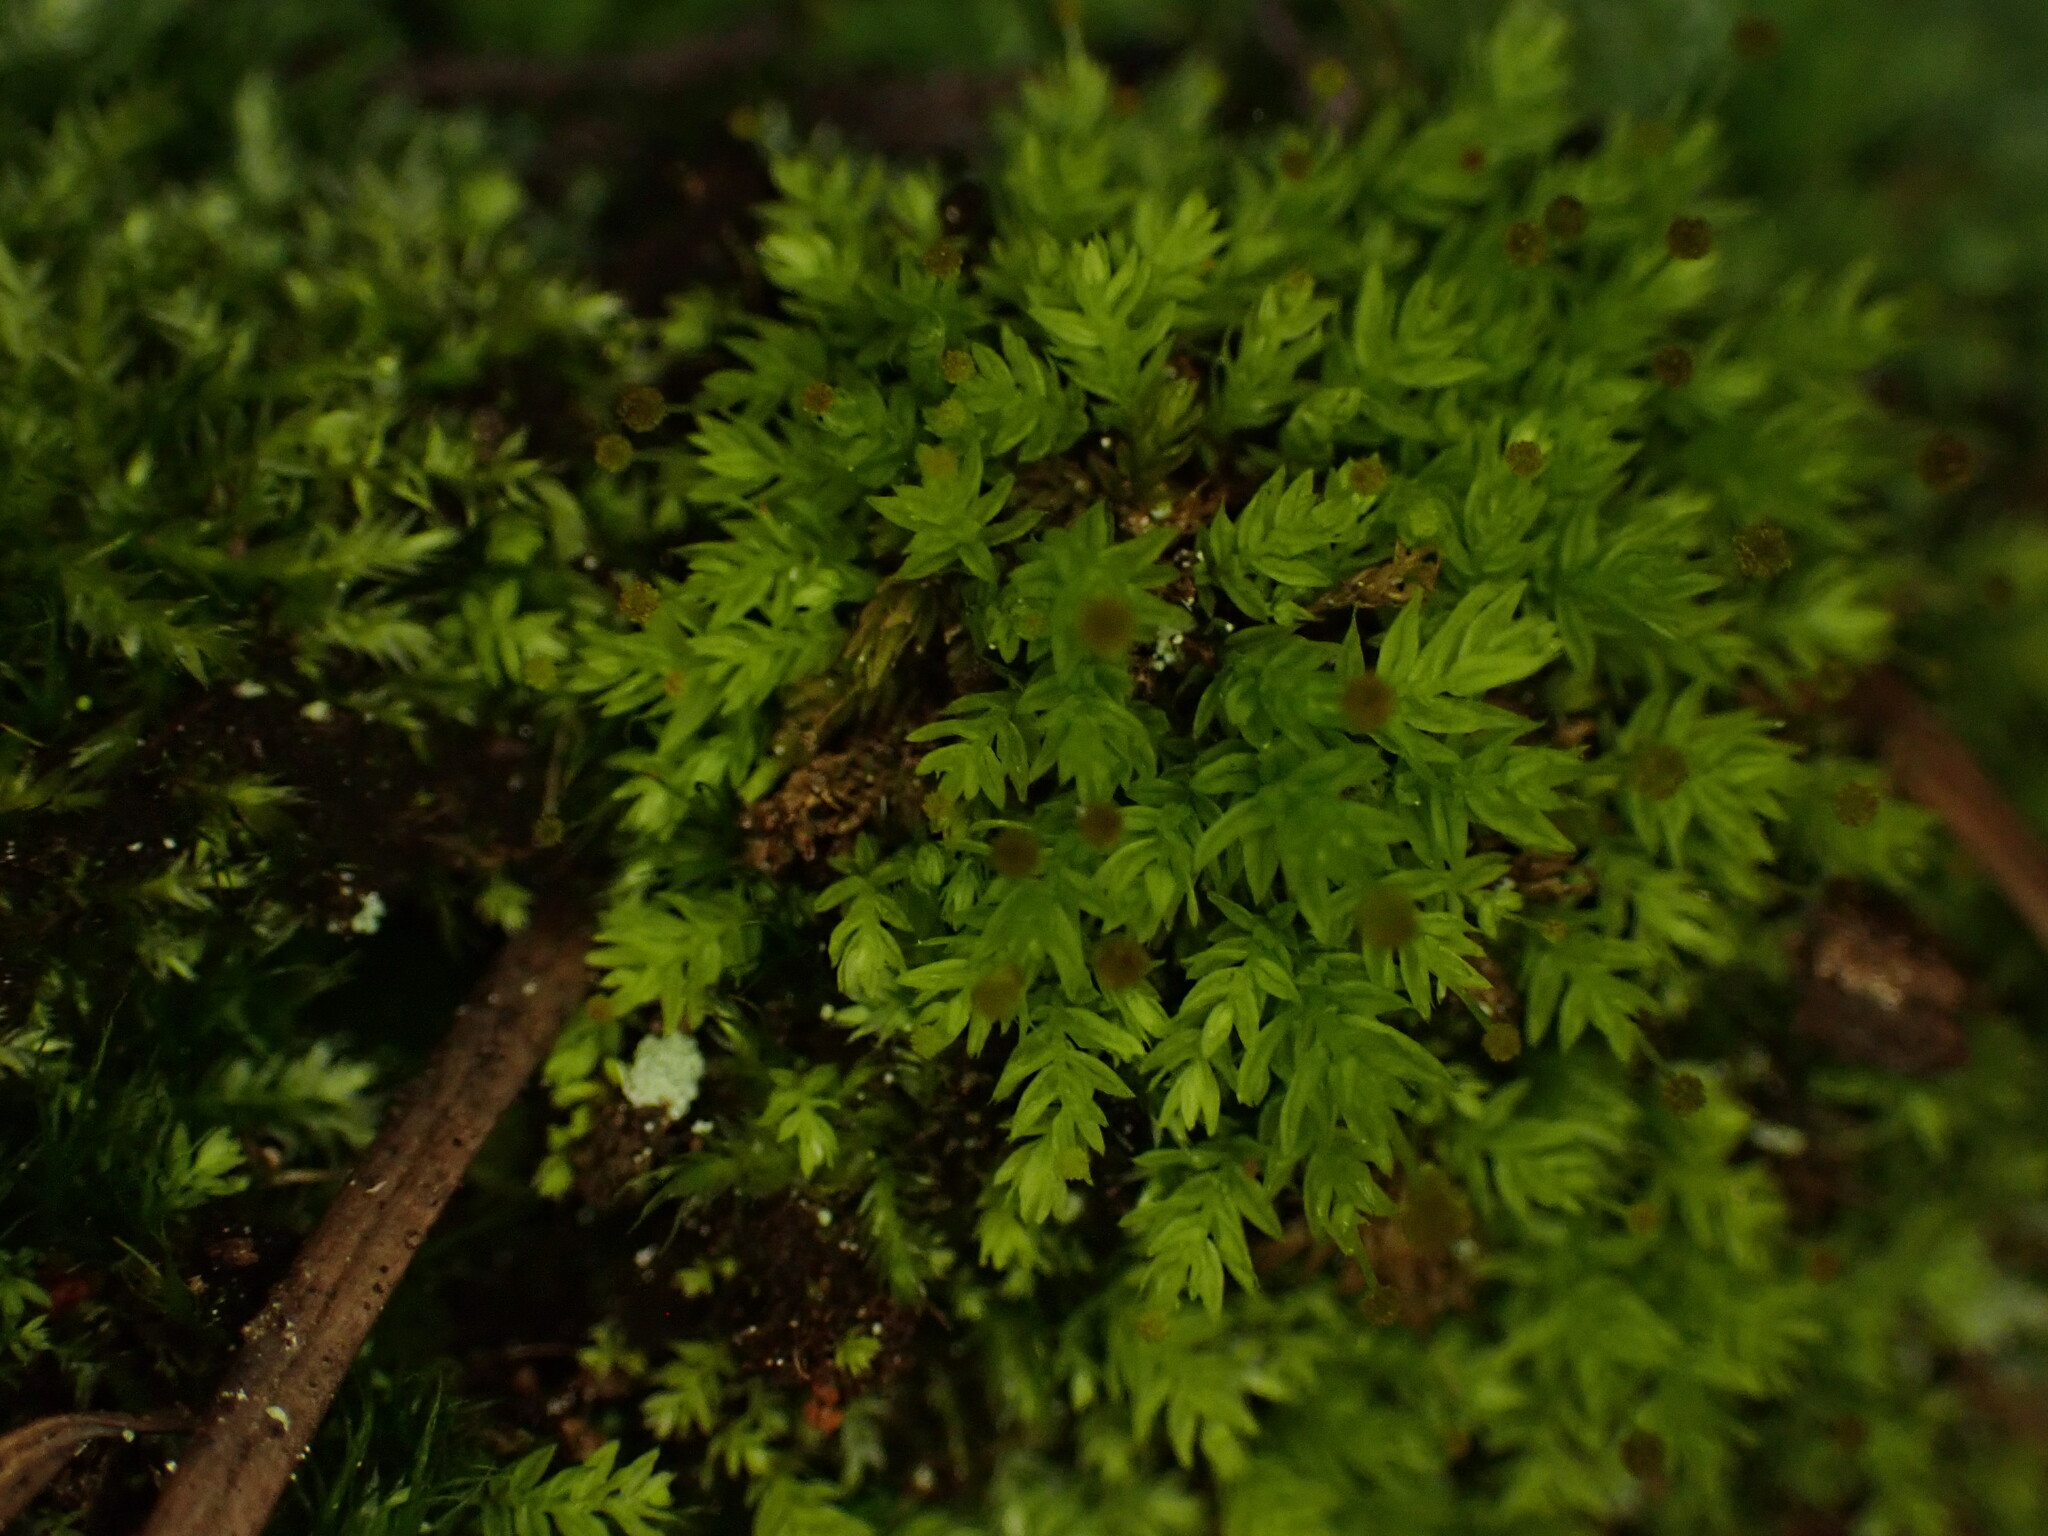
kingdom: Plantae
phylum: Bryophyta
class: Bryopsida
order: Aulacomniales
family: Aulacomniaceae
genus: Aulacomnium
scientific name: Aulacomnium androgynum
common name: Little groove moss
